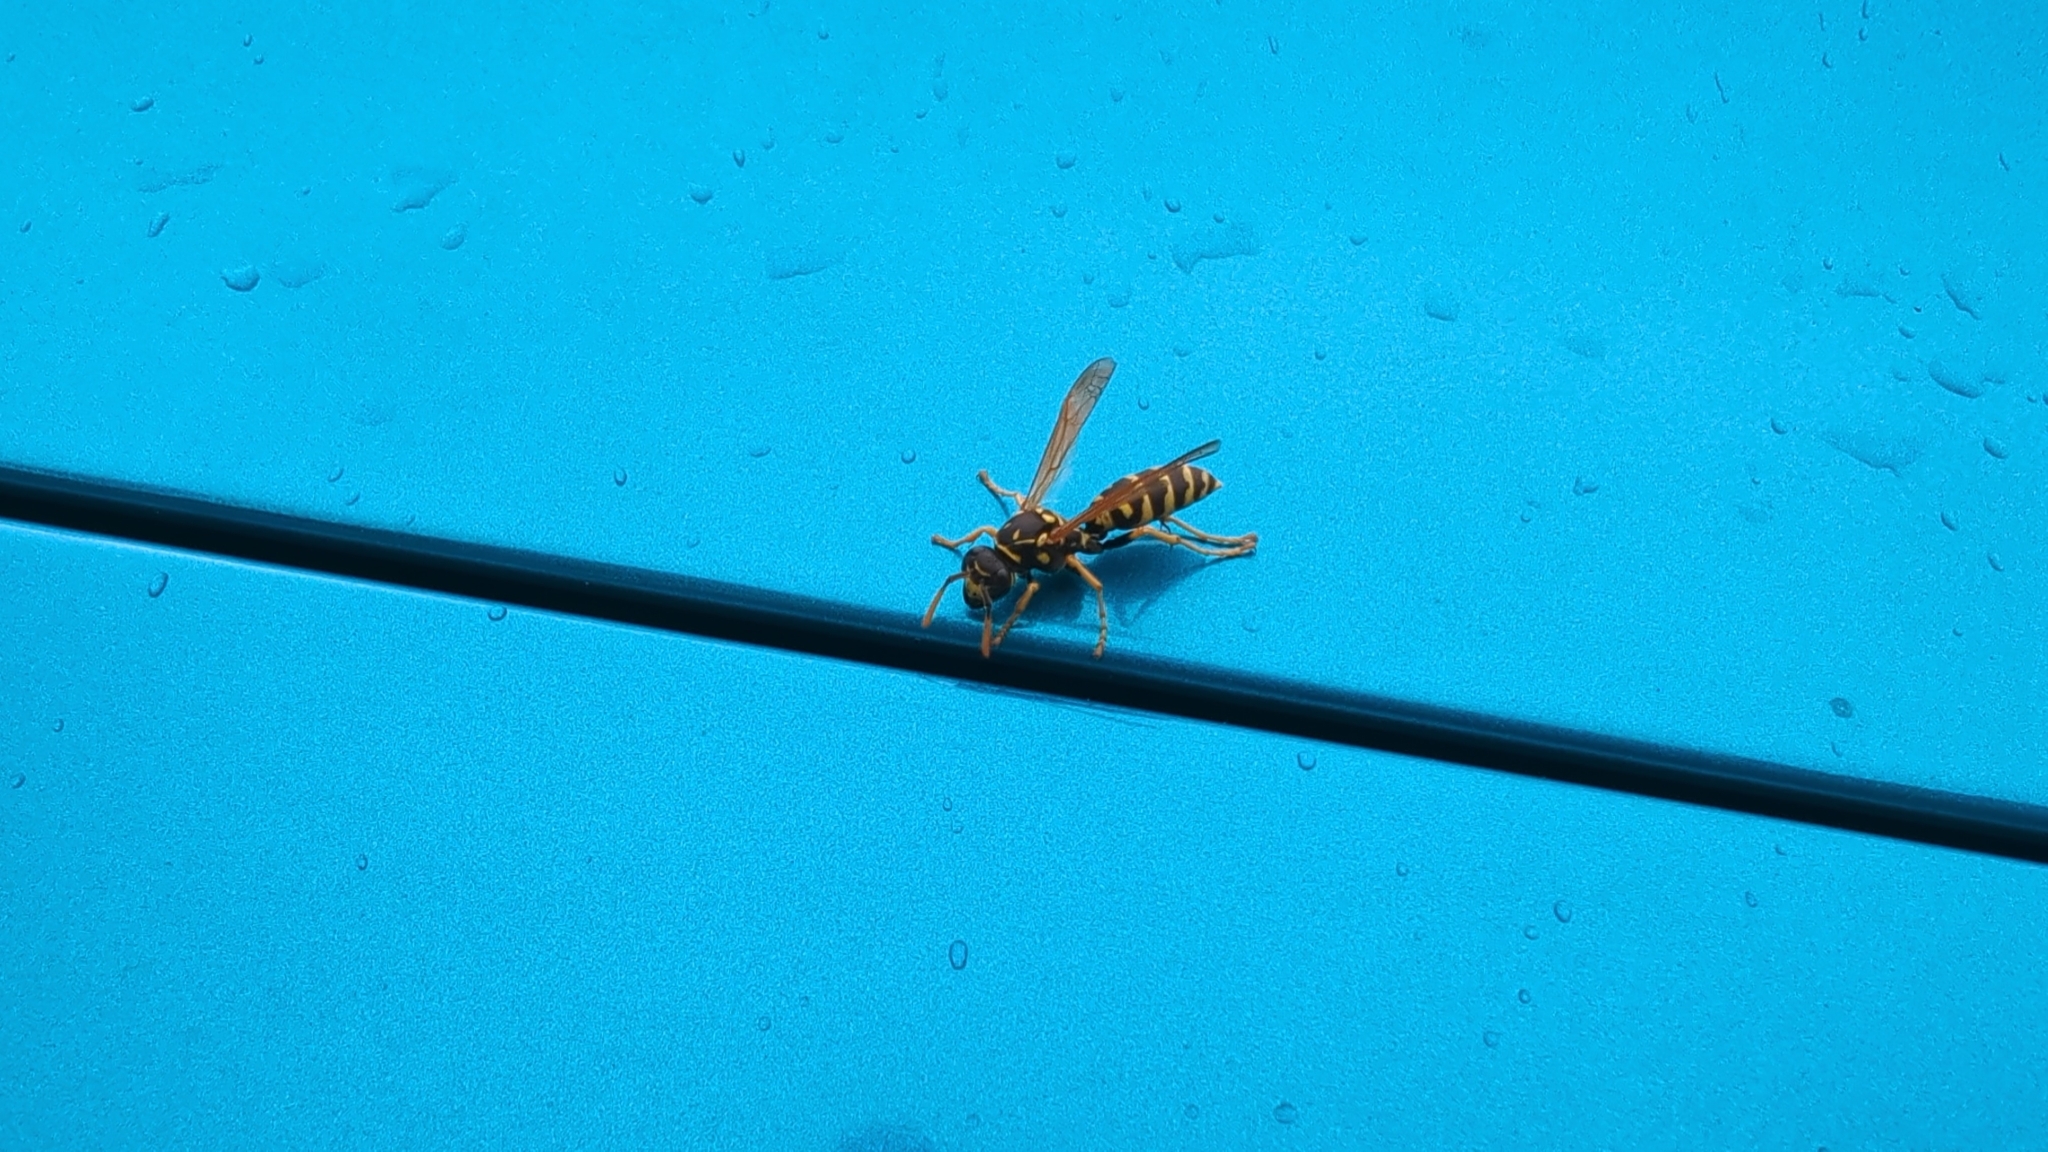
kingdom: Animalia
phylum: Arthropoda
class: Insecta
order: Hymenoptera
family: Eumenidae
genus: Polistes
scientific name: Polistes dominula
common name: Paper wasp
